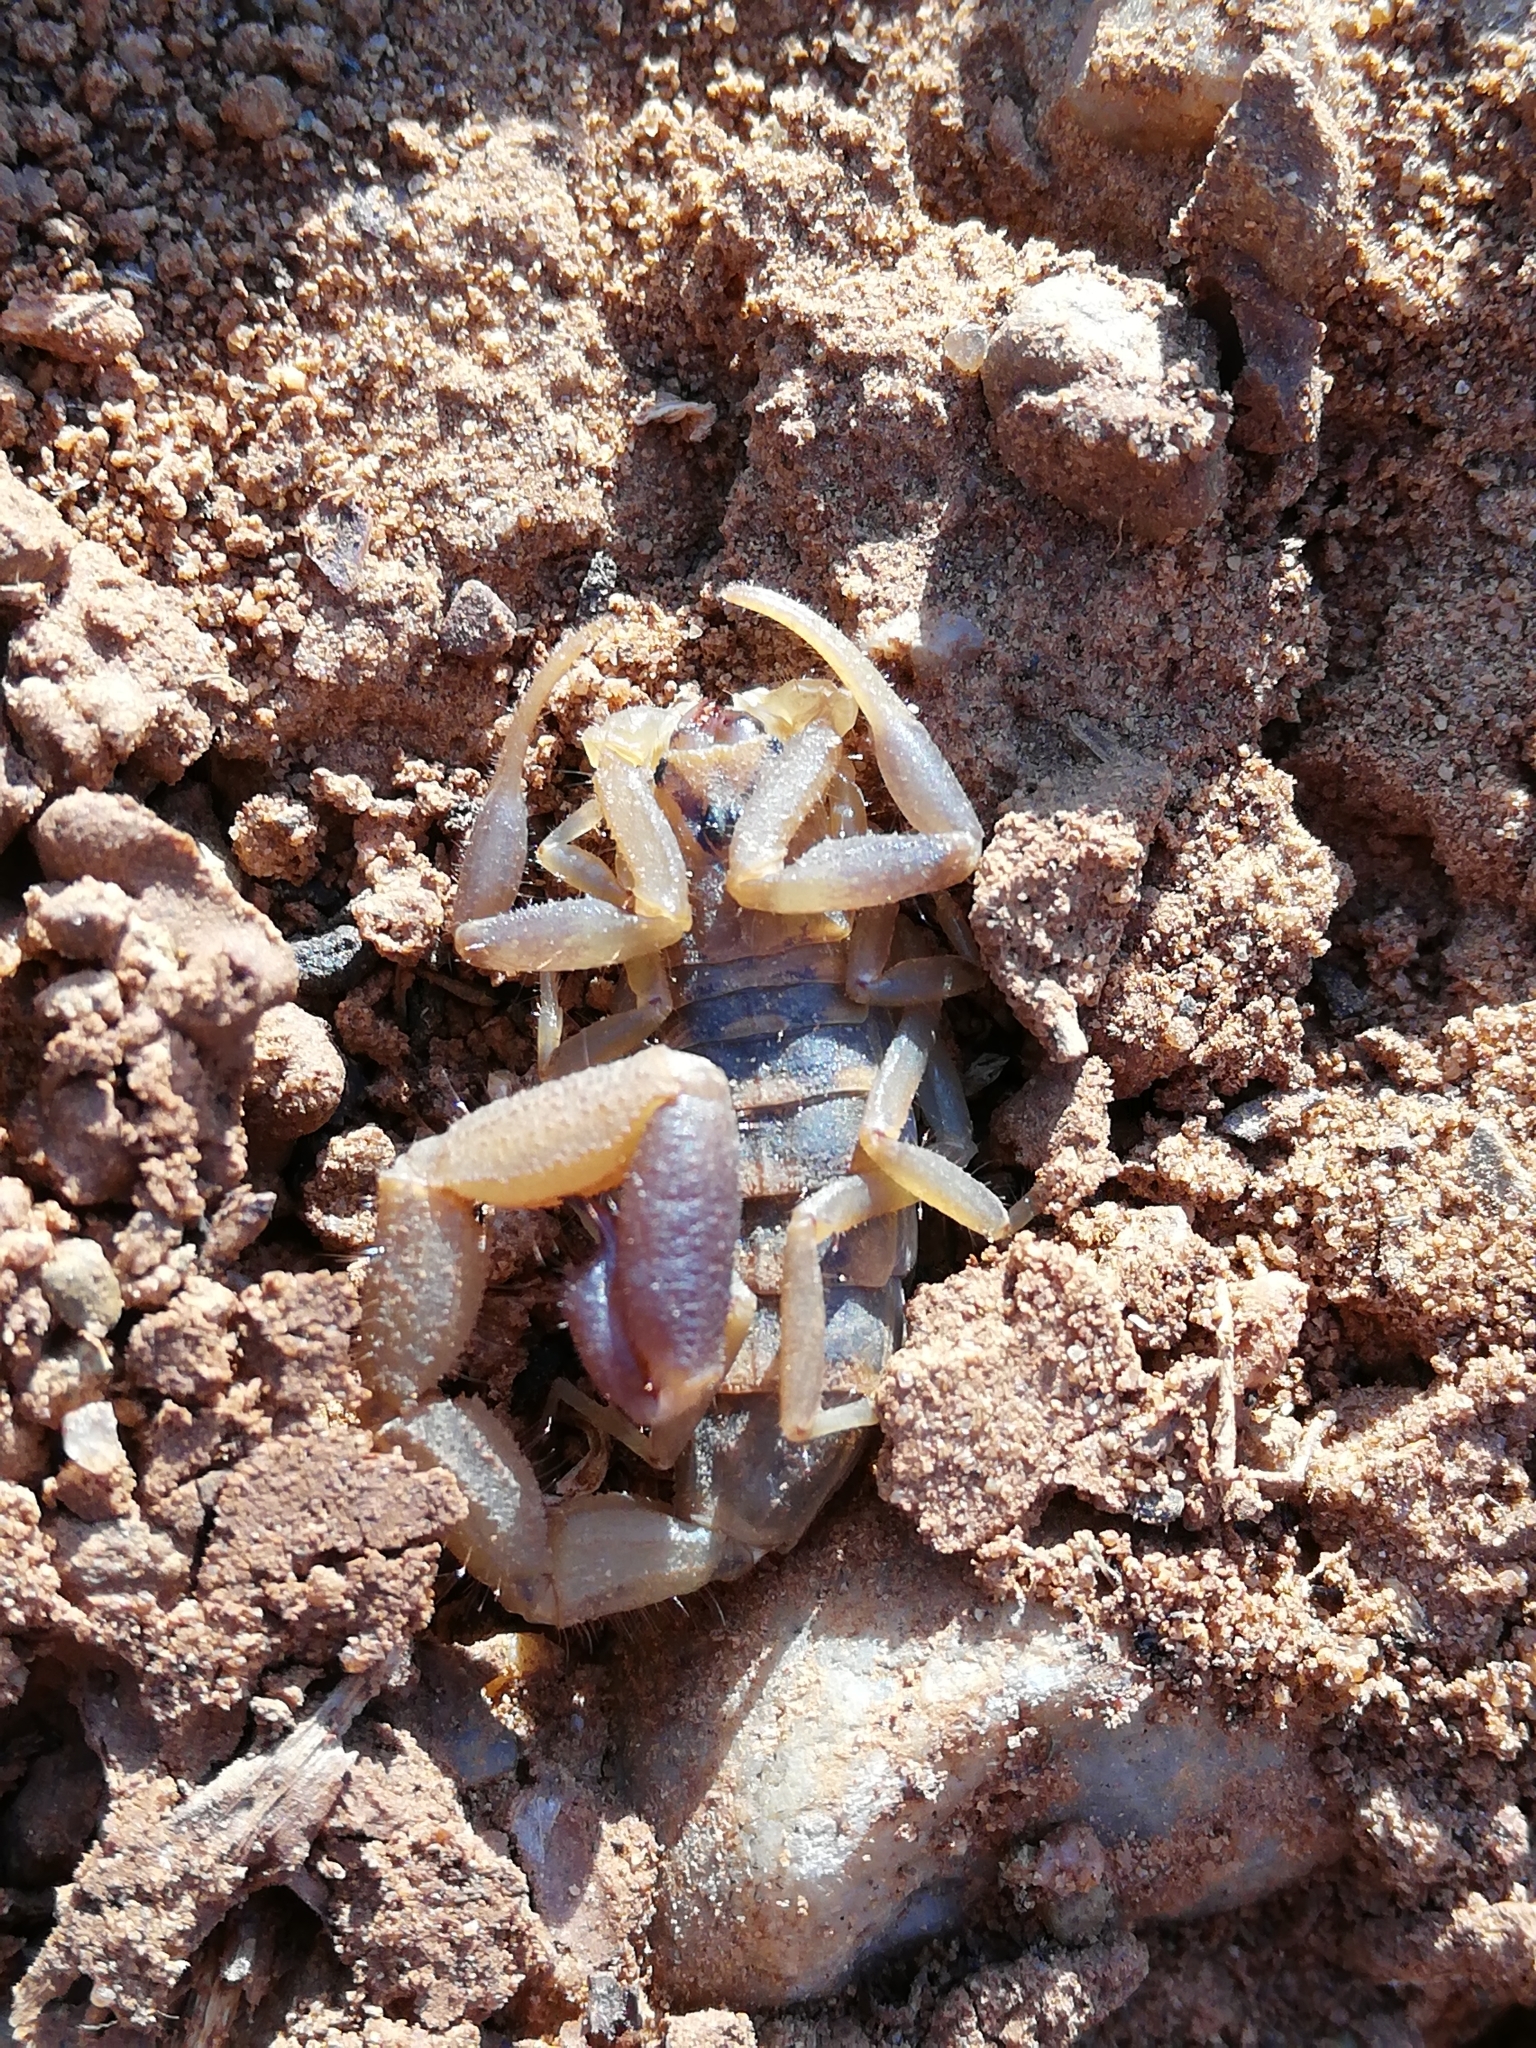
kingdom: Animalia
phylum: Arthropoda
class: Arachnida
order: Scorpiones
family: Buthidae
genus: Uroplectes
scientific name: Uroplectes triangulifer
